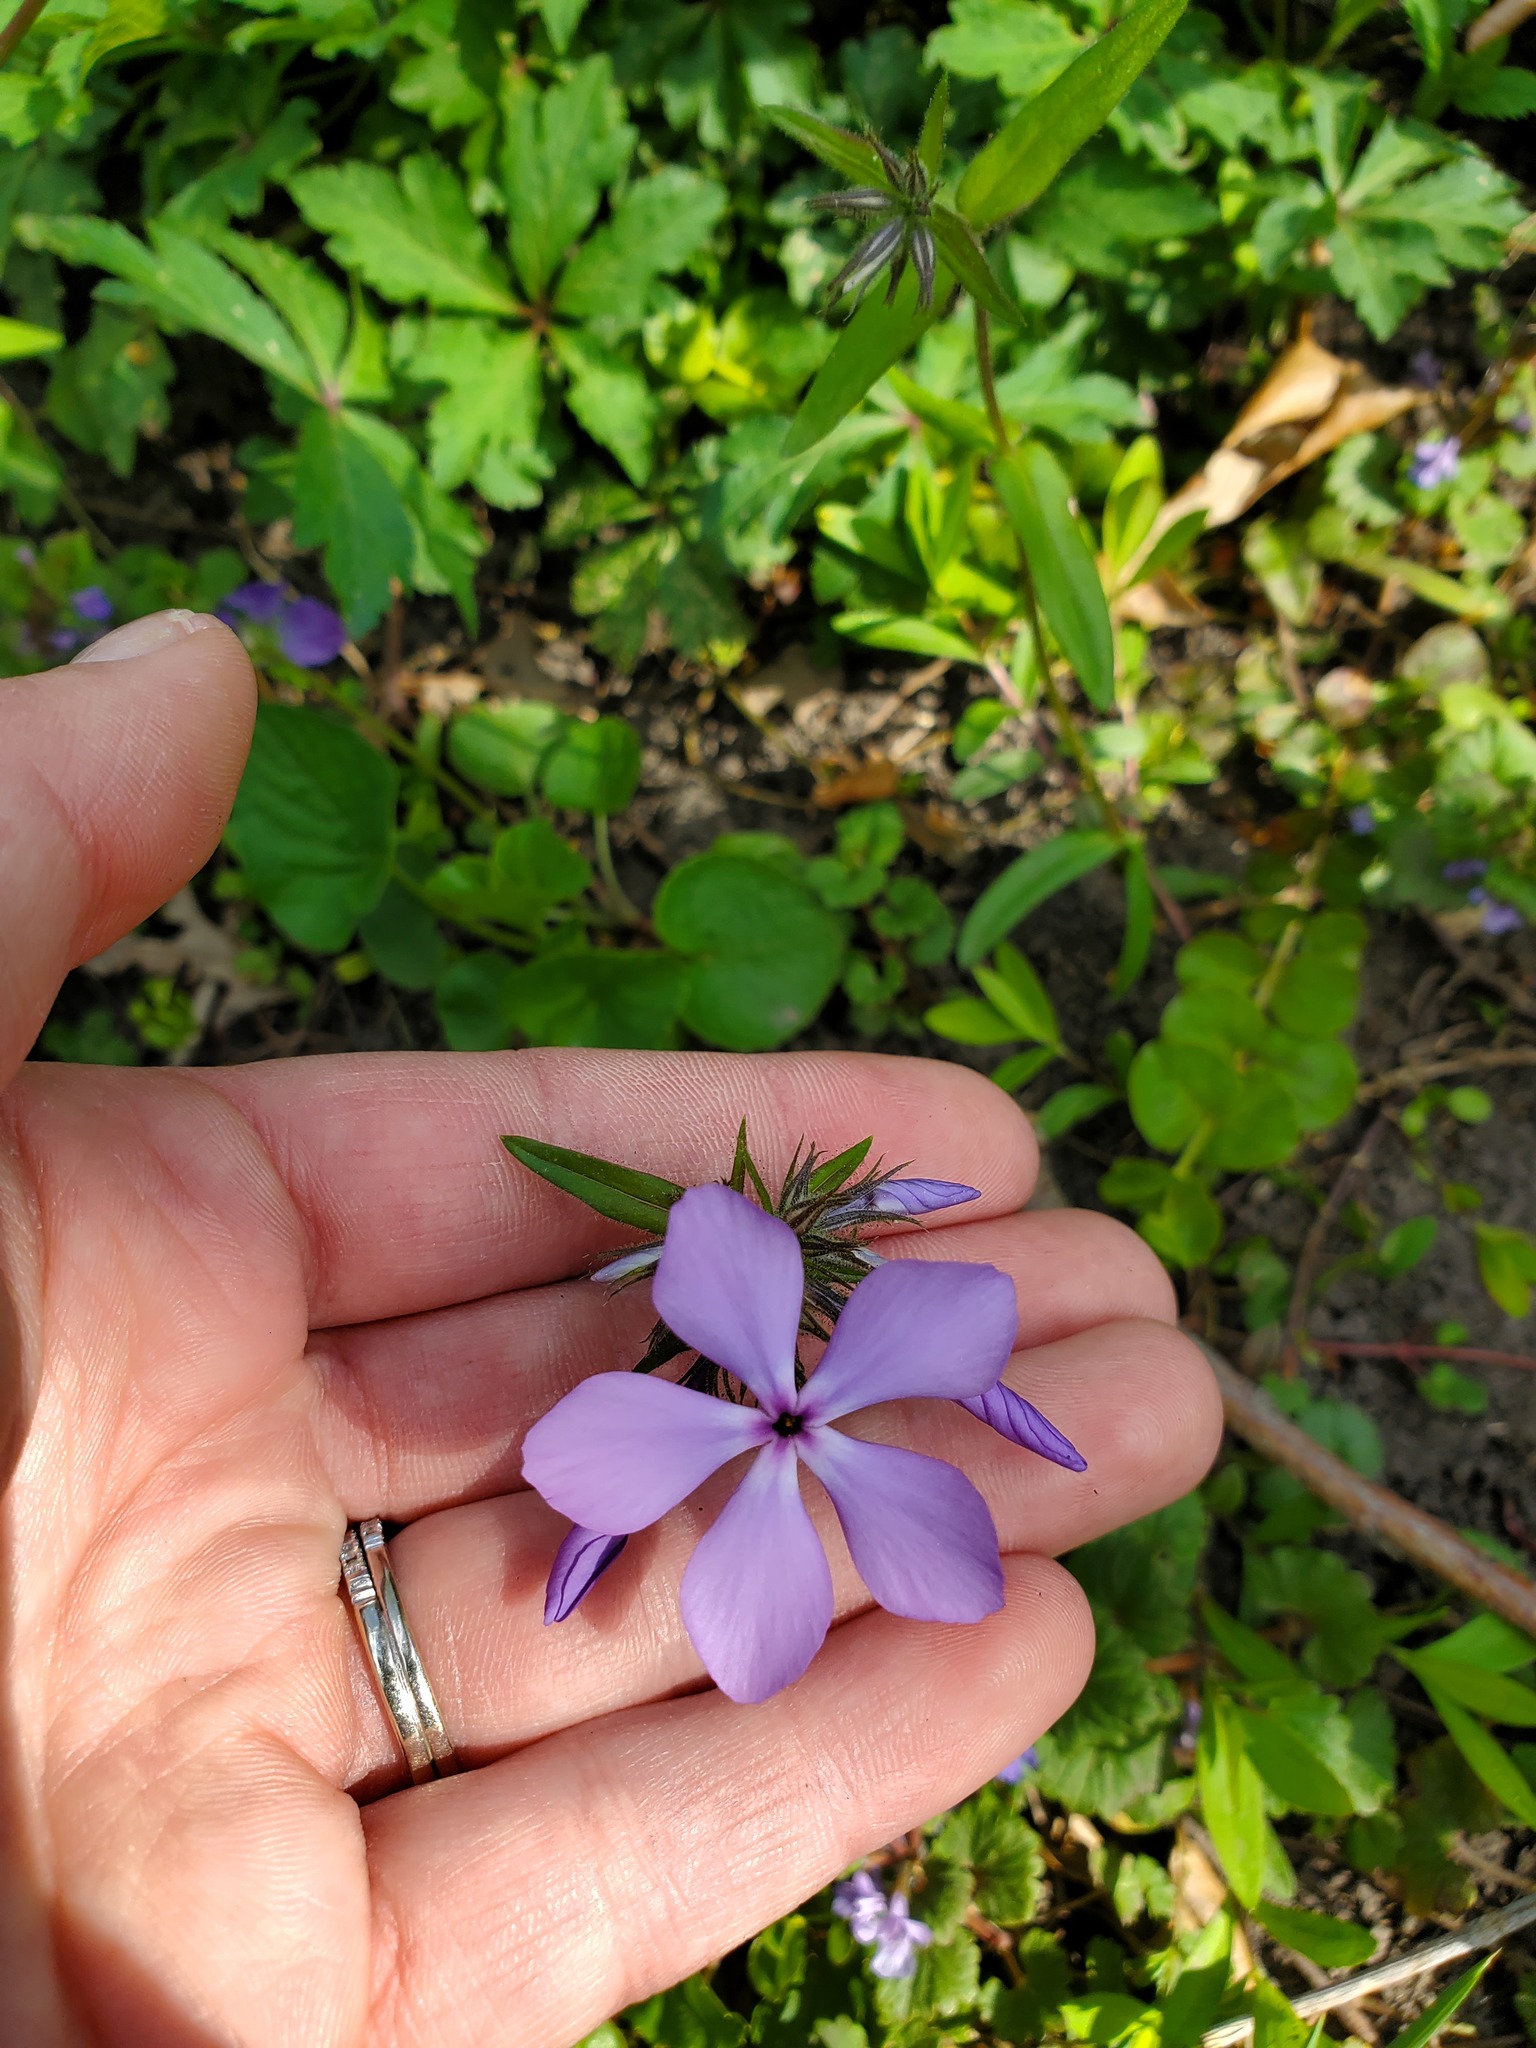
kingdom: Plantae
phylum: Tracheophyta
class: Magnoliopsida
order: Ericales
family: Polemoniaceae
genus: Phlox
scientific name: Phlox divaricata
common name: Blue phlox
